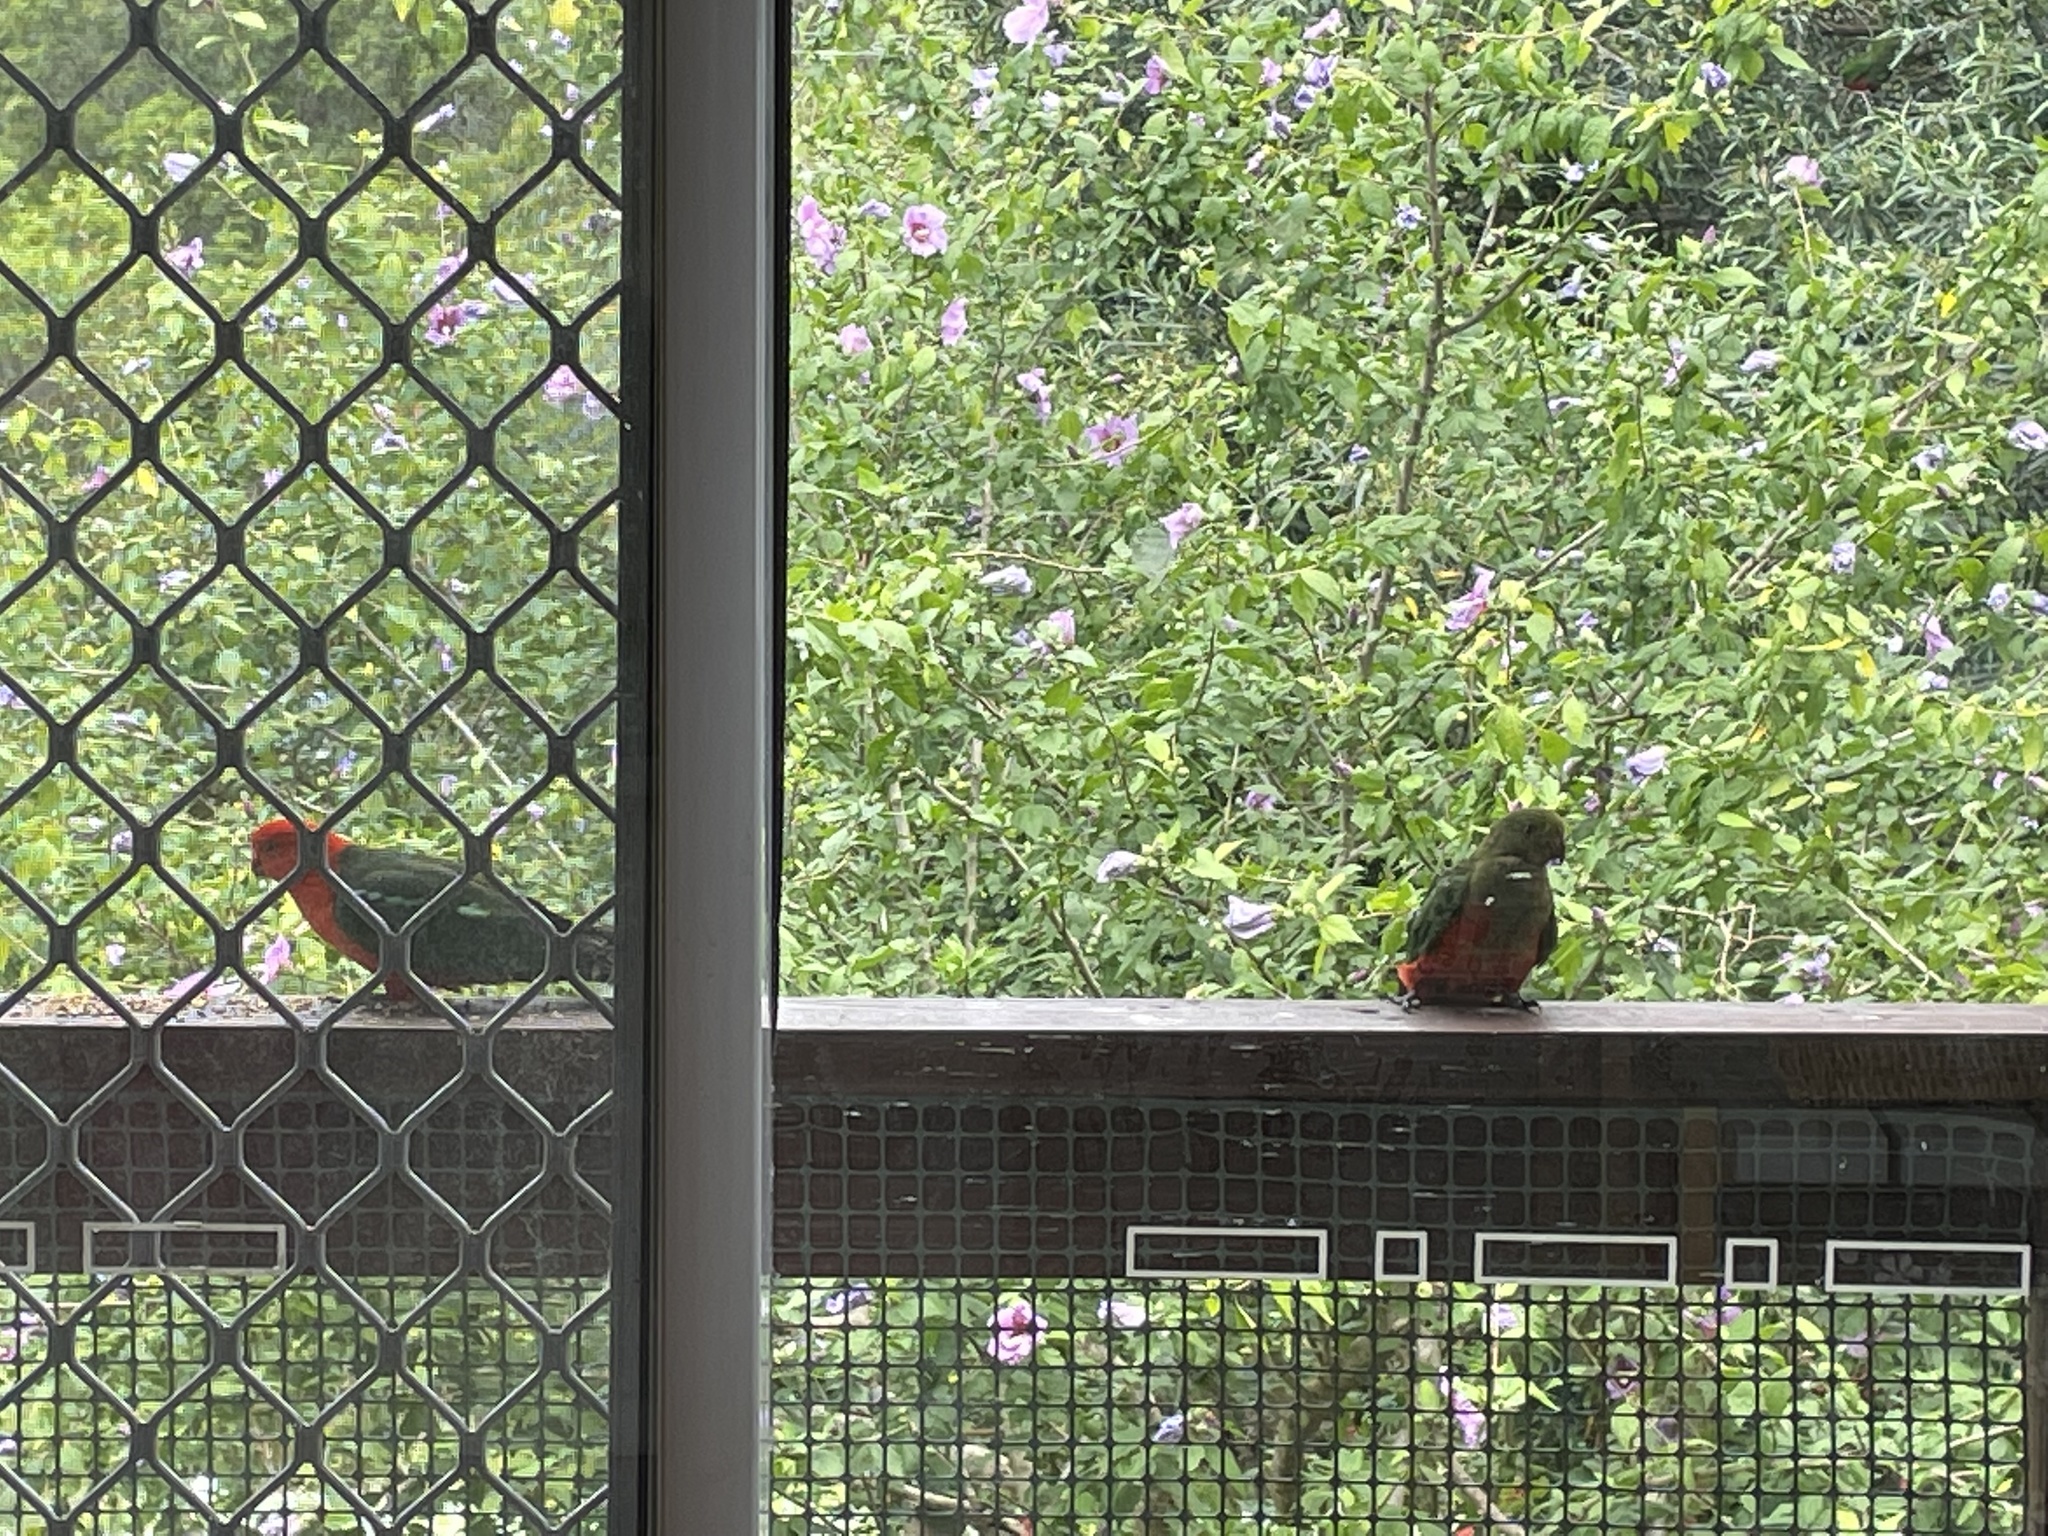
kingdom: Animalia
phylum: Chordata
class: Aves
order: Psittaciformes
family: Psittacidae
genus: Alisterus
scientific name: Alisterus scapularis
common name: Australian king parrot
